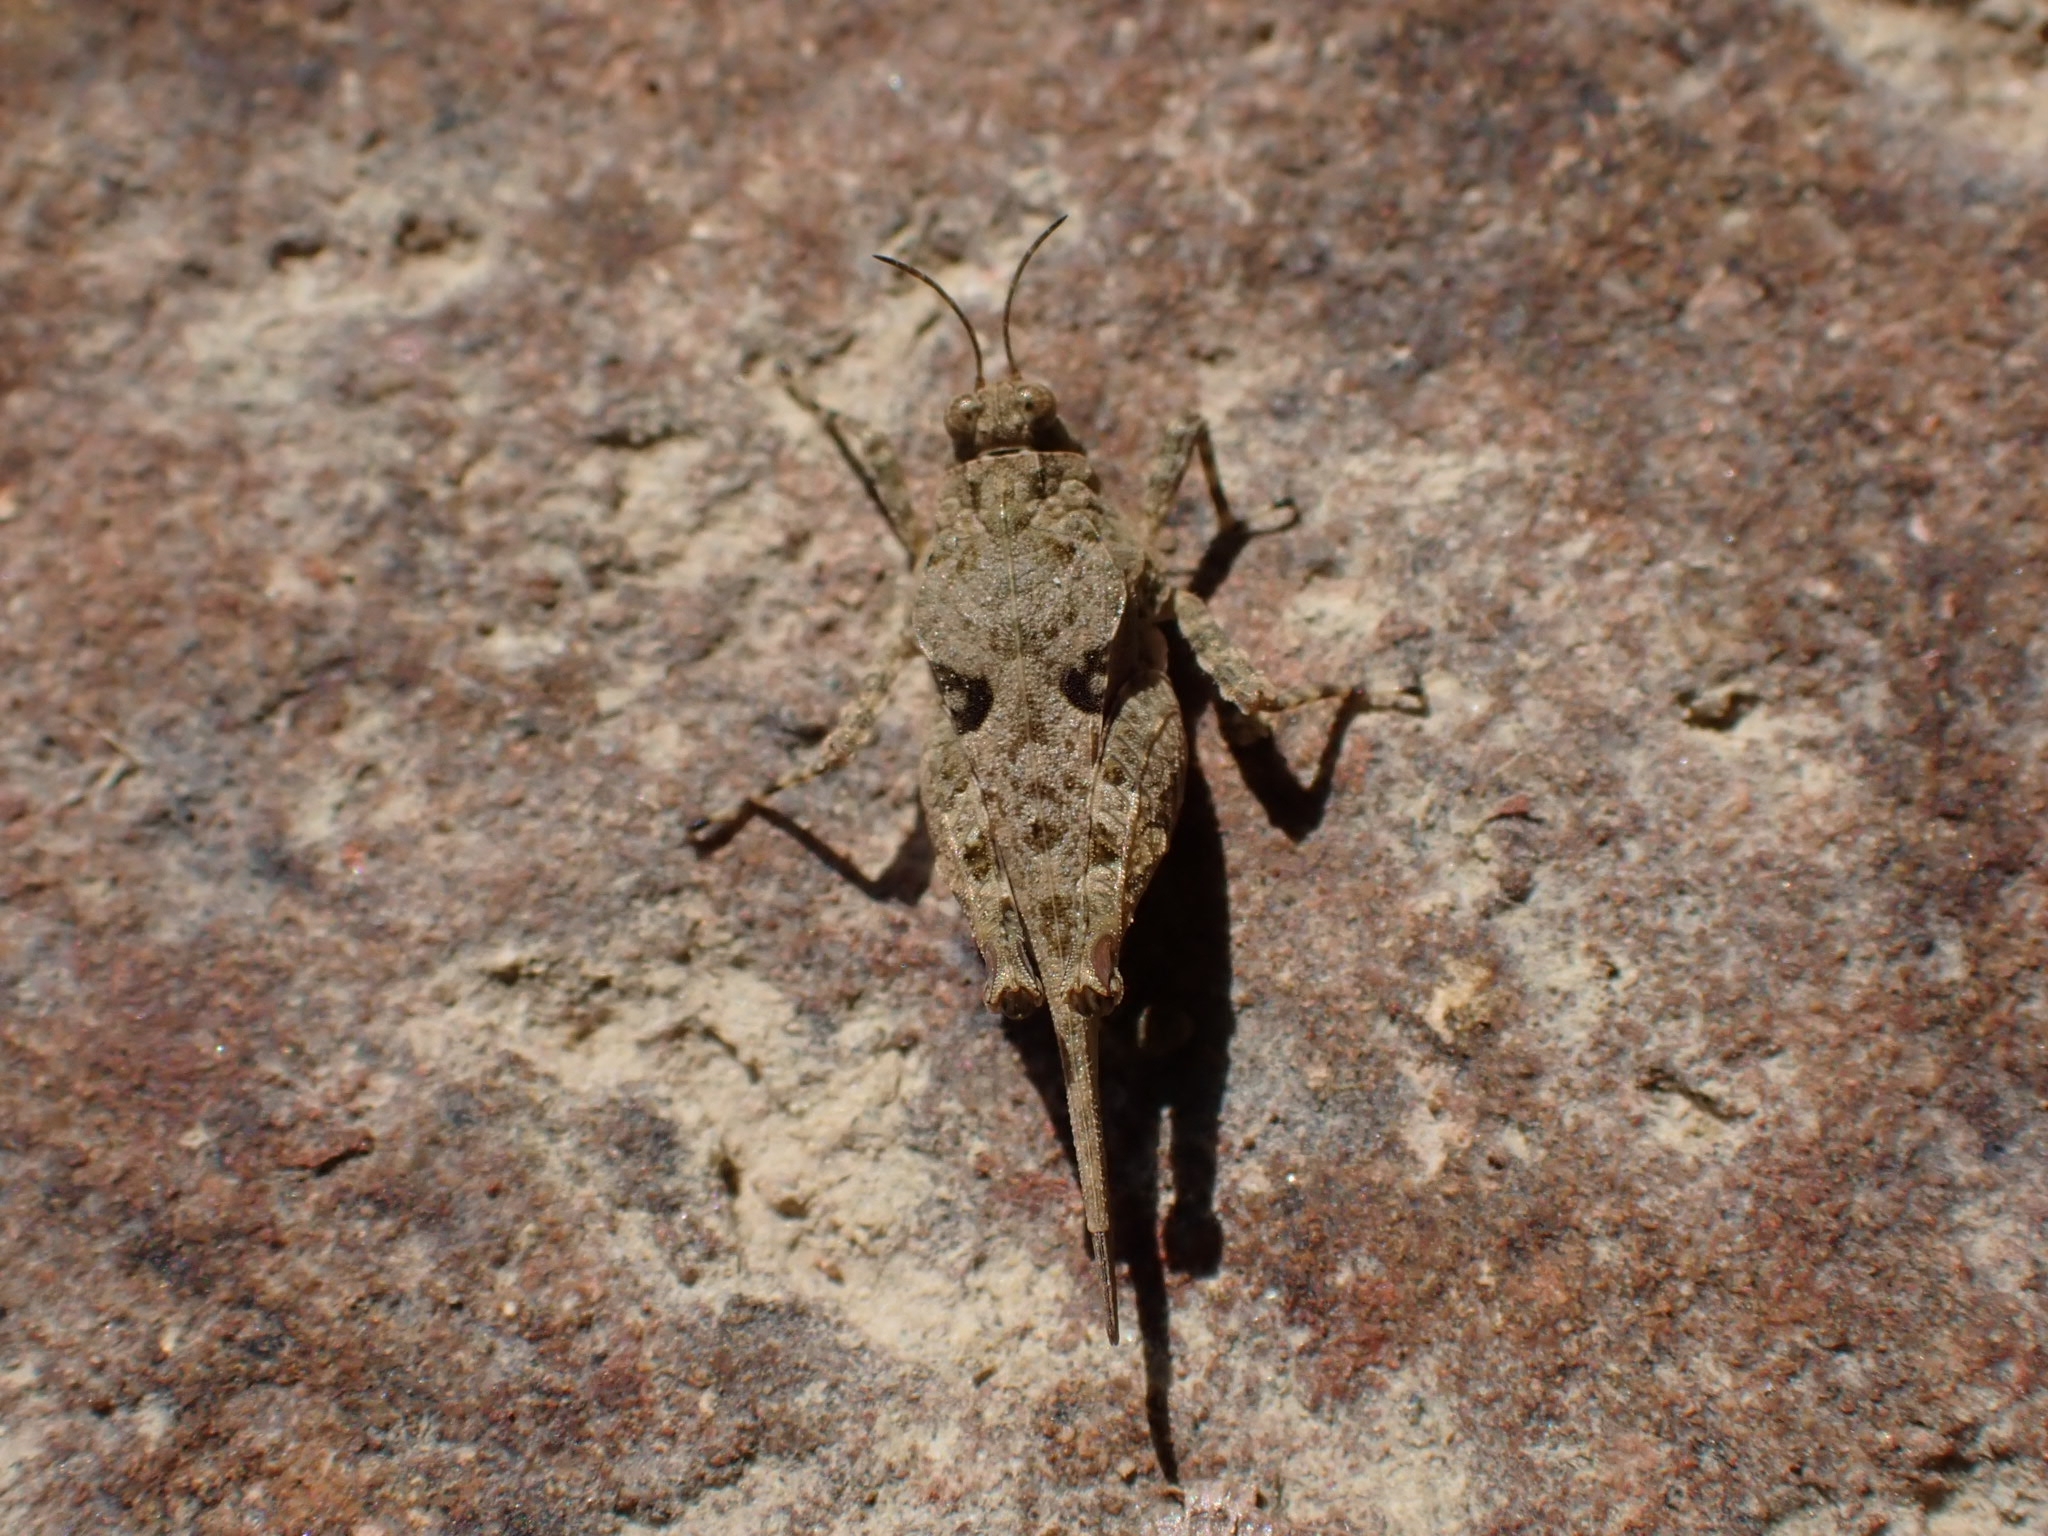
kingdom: Animalia
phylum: Arthropoda
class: Insecta
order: Orthoptera
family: Tetrigidae
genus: Paratettix
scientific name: Paratettix meridionalis
